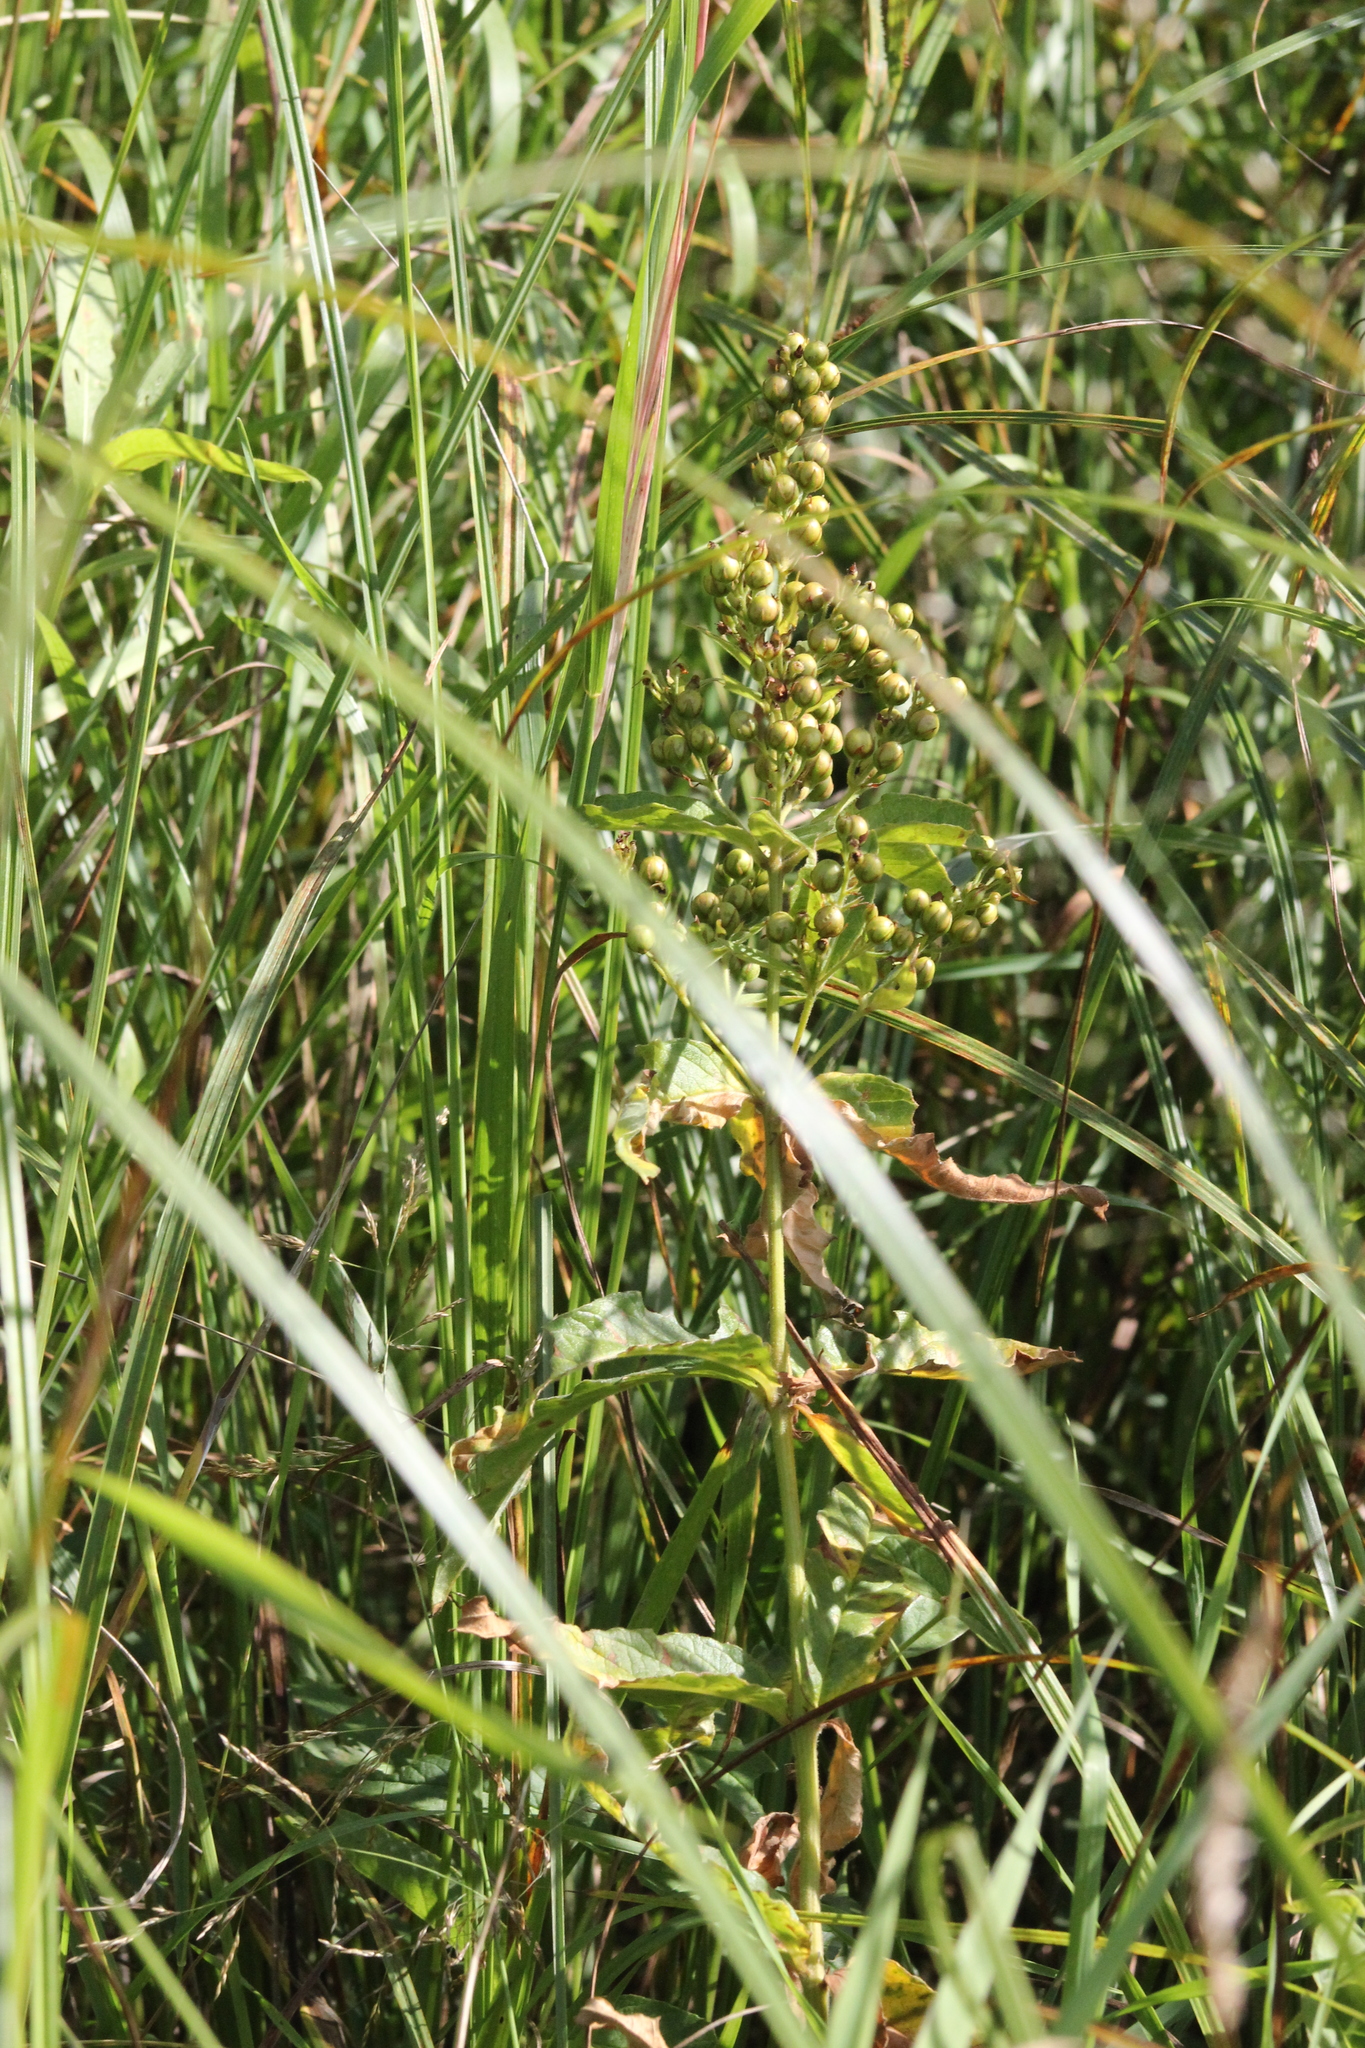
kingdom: Plantae
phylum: Tracheophyta
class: Magnoliopsida
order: Ericales
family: Primulaceae
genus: Lysimachia
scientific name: Lysimachia vulgaris
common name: Yellow loosestrife
